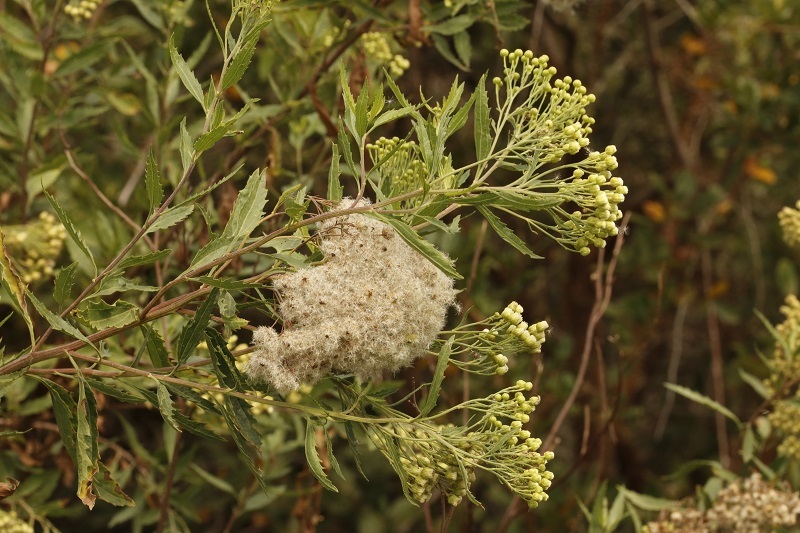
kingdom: Plantae
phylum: Tracheophyta
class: Magnoliopsida
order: Asterales
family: Asteraceae
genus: Nidorella
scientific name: Nidorella ivifolia
